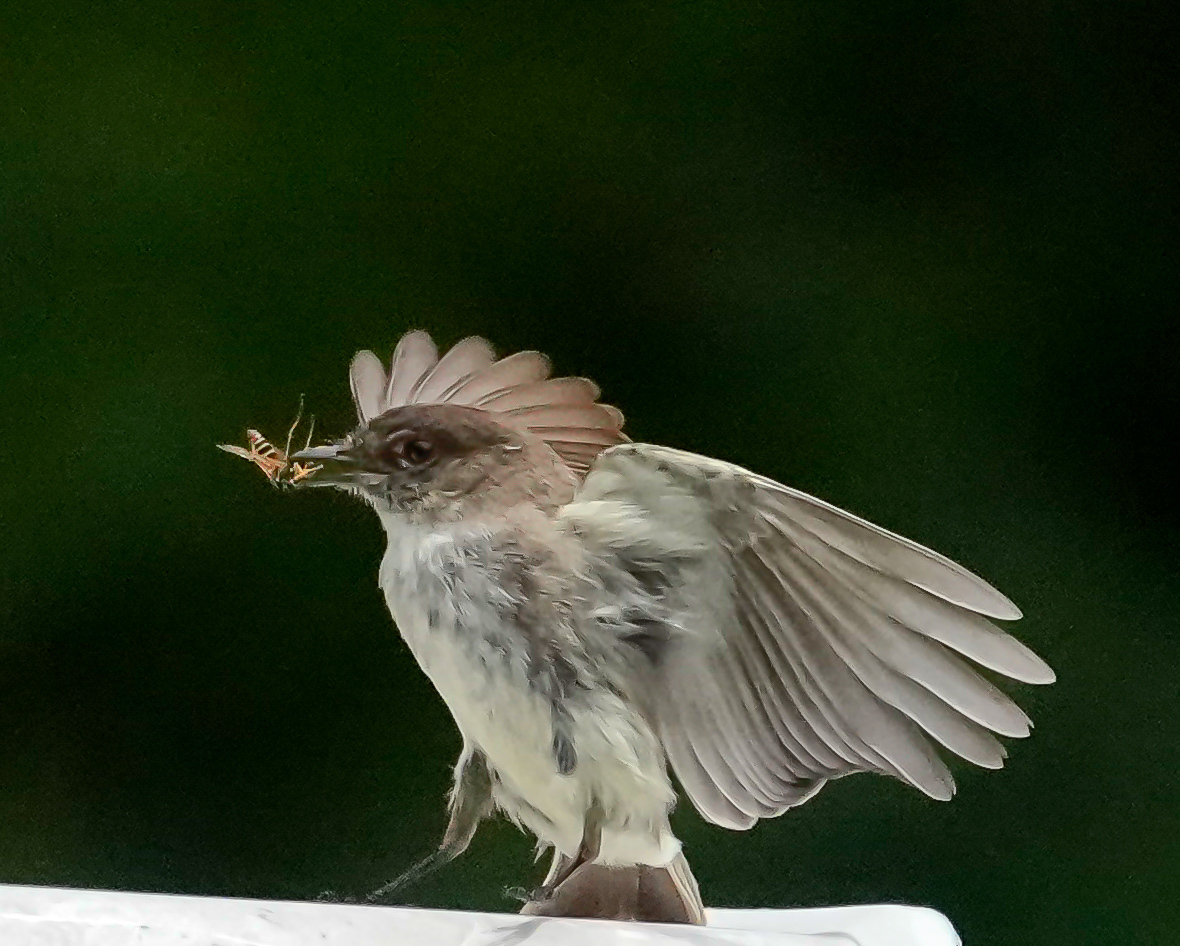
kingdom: Animalia
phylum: Chordata
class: Aves
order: Passeriformes
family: Tyrannidae
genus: Sayornis
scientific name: Sayornis phoebe
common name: Eastern phoebe
